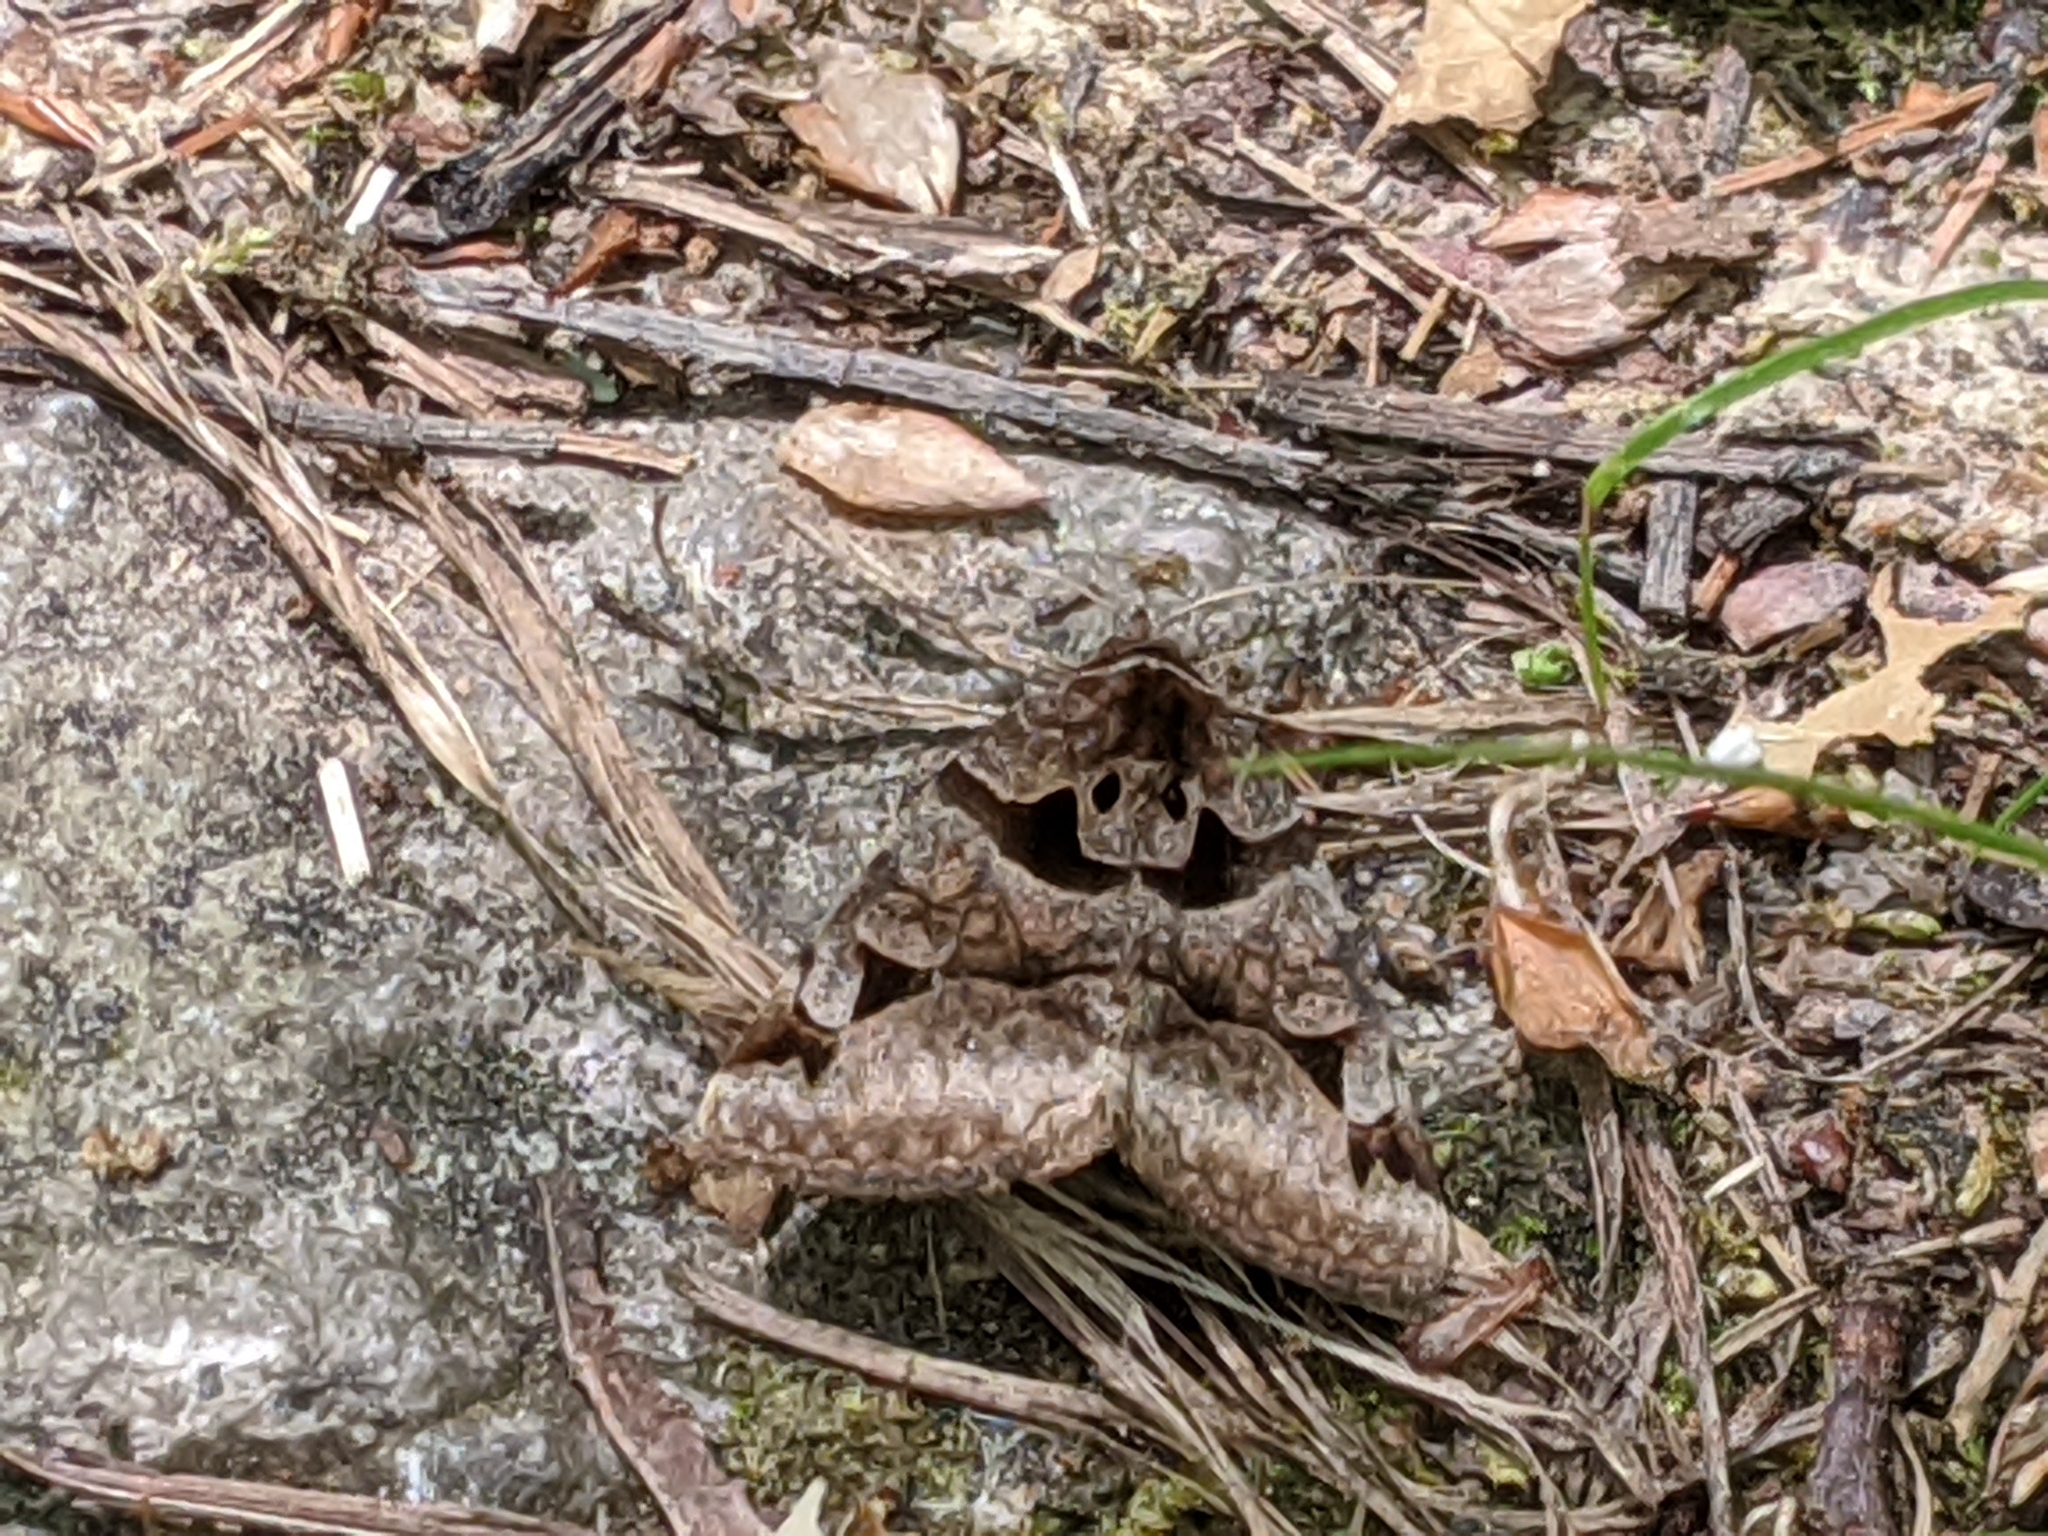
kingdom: Animalia
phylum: Arthropoda
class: Insecta
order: Lepidoptera
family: Erebidae
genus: Euclidia
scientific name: Euclidia cuspidea
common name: Toothed somberwing
